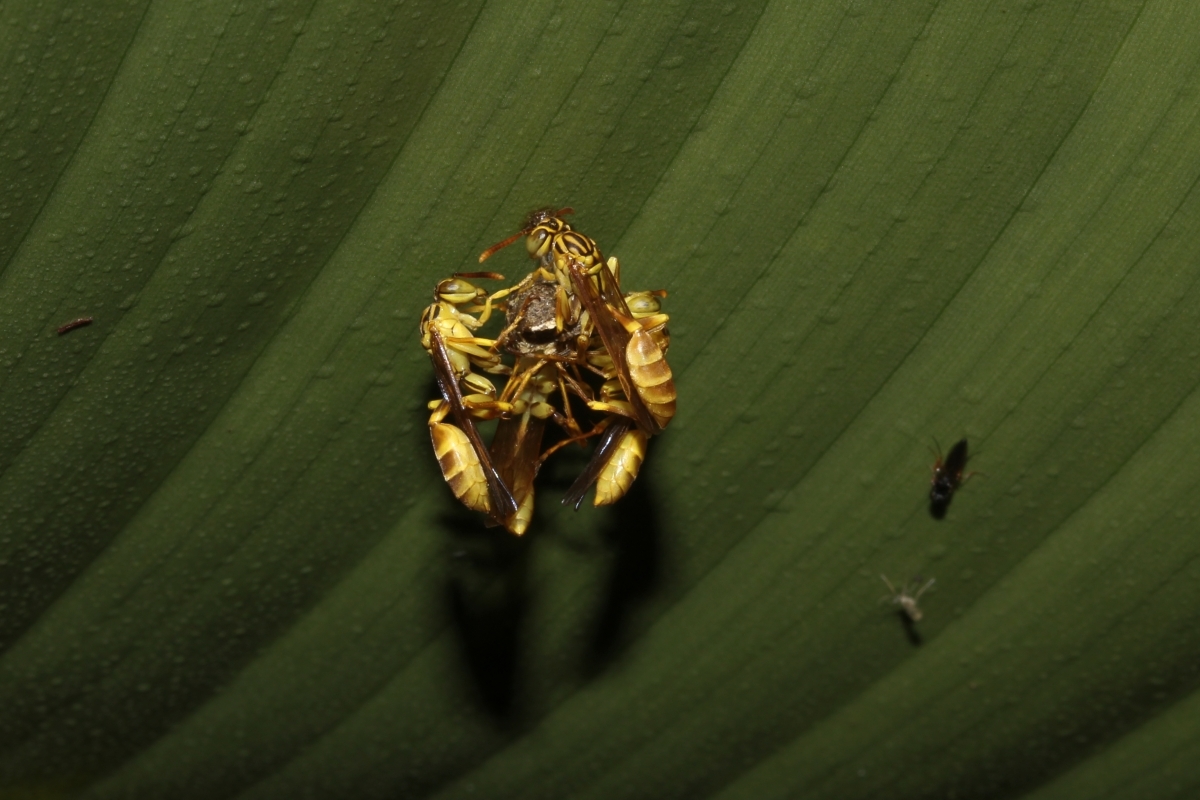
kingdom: Animalia
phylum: Arthropoda
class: Insecta
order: Hymenoptera
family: Vespidae
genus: Mischocyttarus
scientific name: Mischocyttarus
